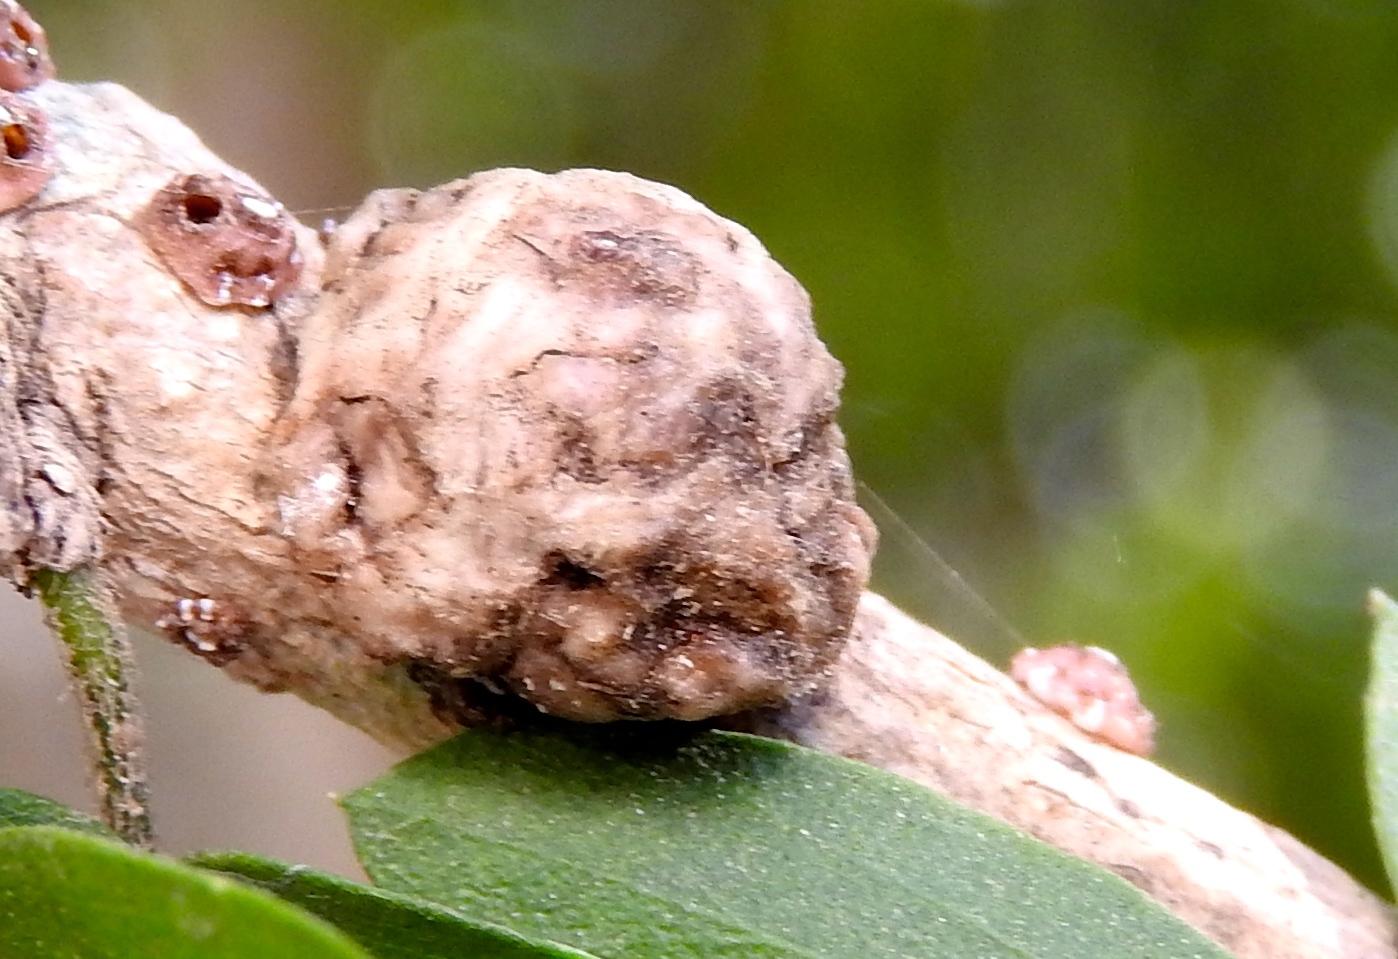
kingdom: Animalia
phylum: Arthropoda
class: Insecta
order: Hemiptera
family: Coccidae
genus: Ceroplastes
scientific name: Ceroplastes
